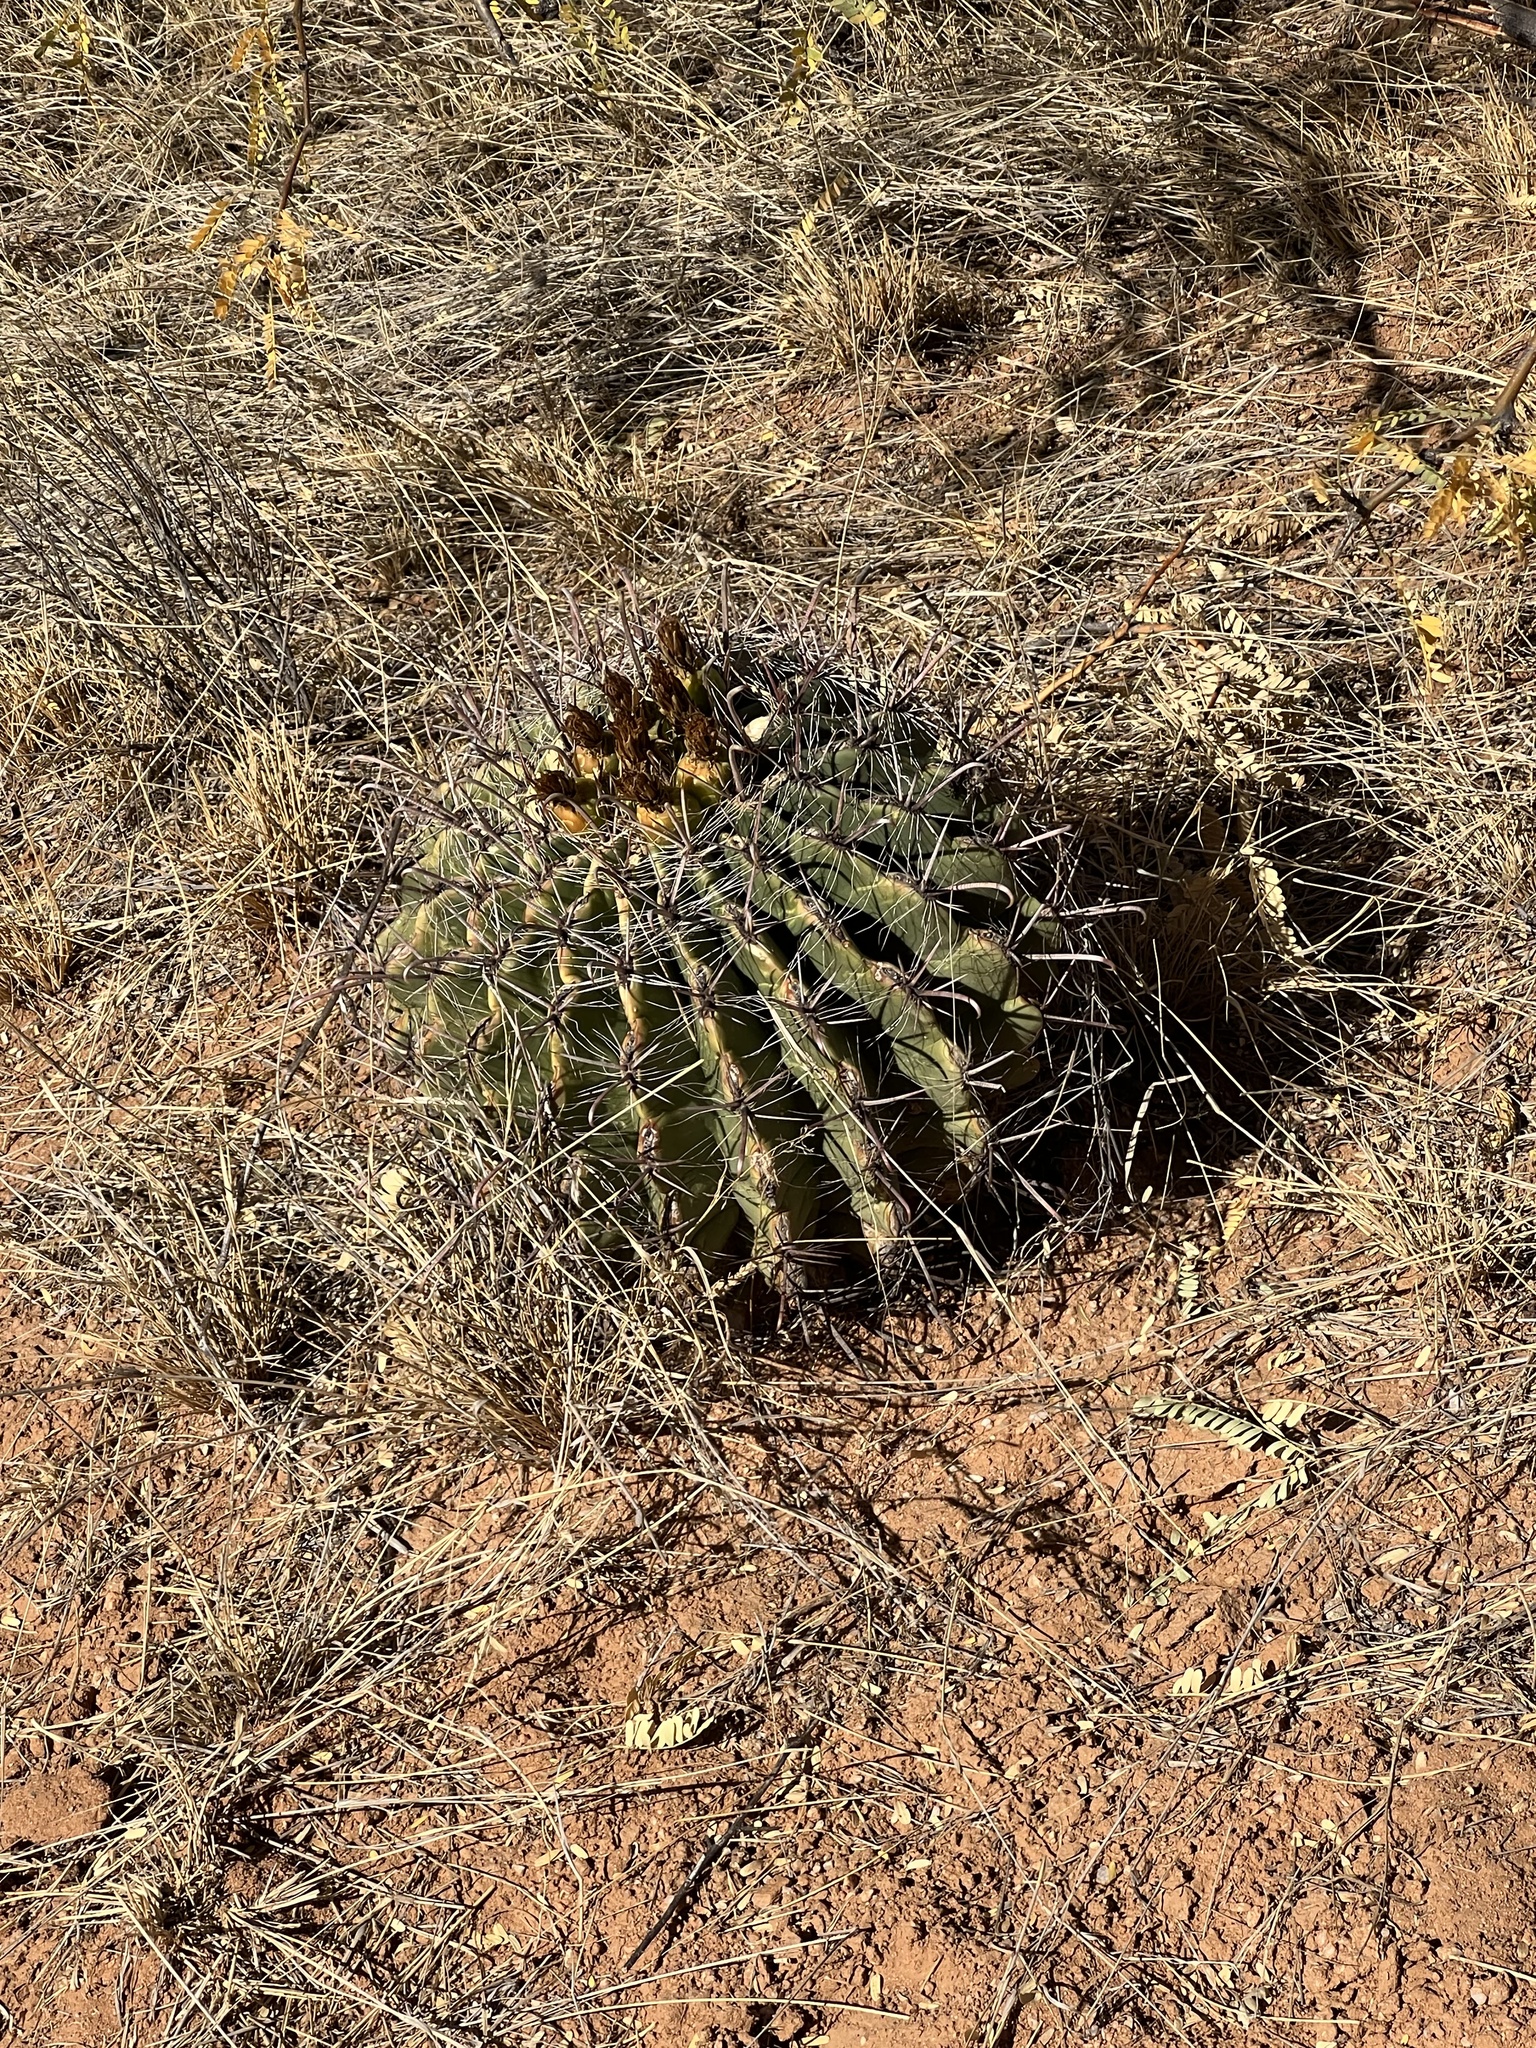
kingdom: Plantae
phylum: Tracheophyta
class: Magnoliopsida
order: Caryophyllales
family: Cactaceae
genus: Ferocactus
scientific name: Ferocactus wislizeni
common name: Candy barrel cactus
